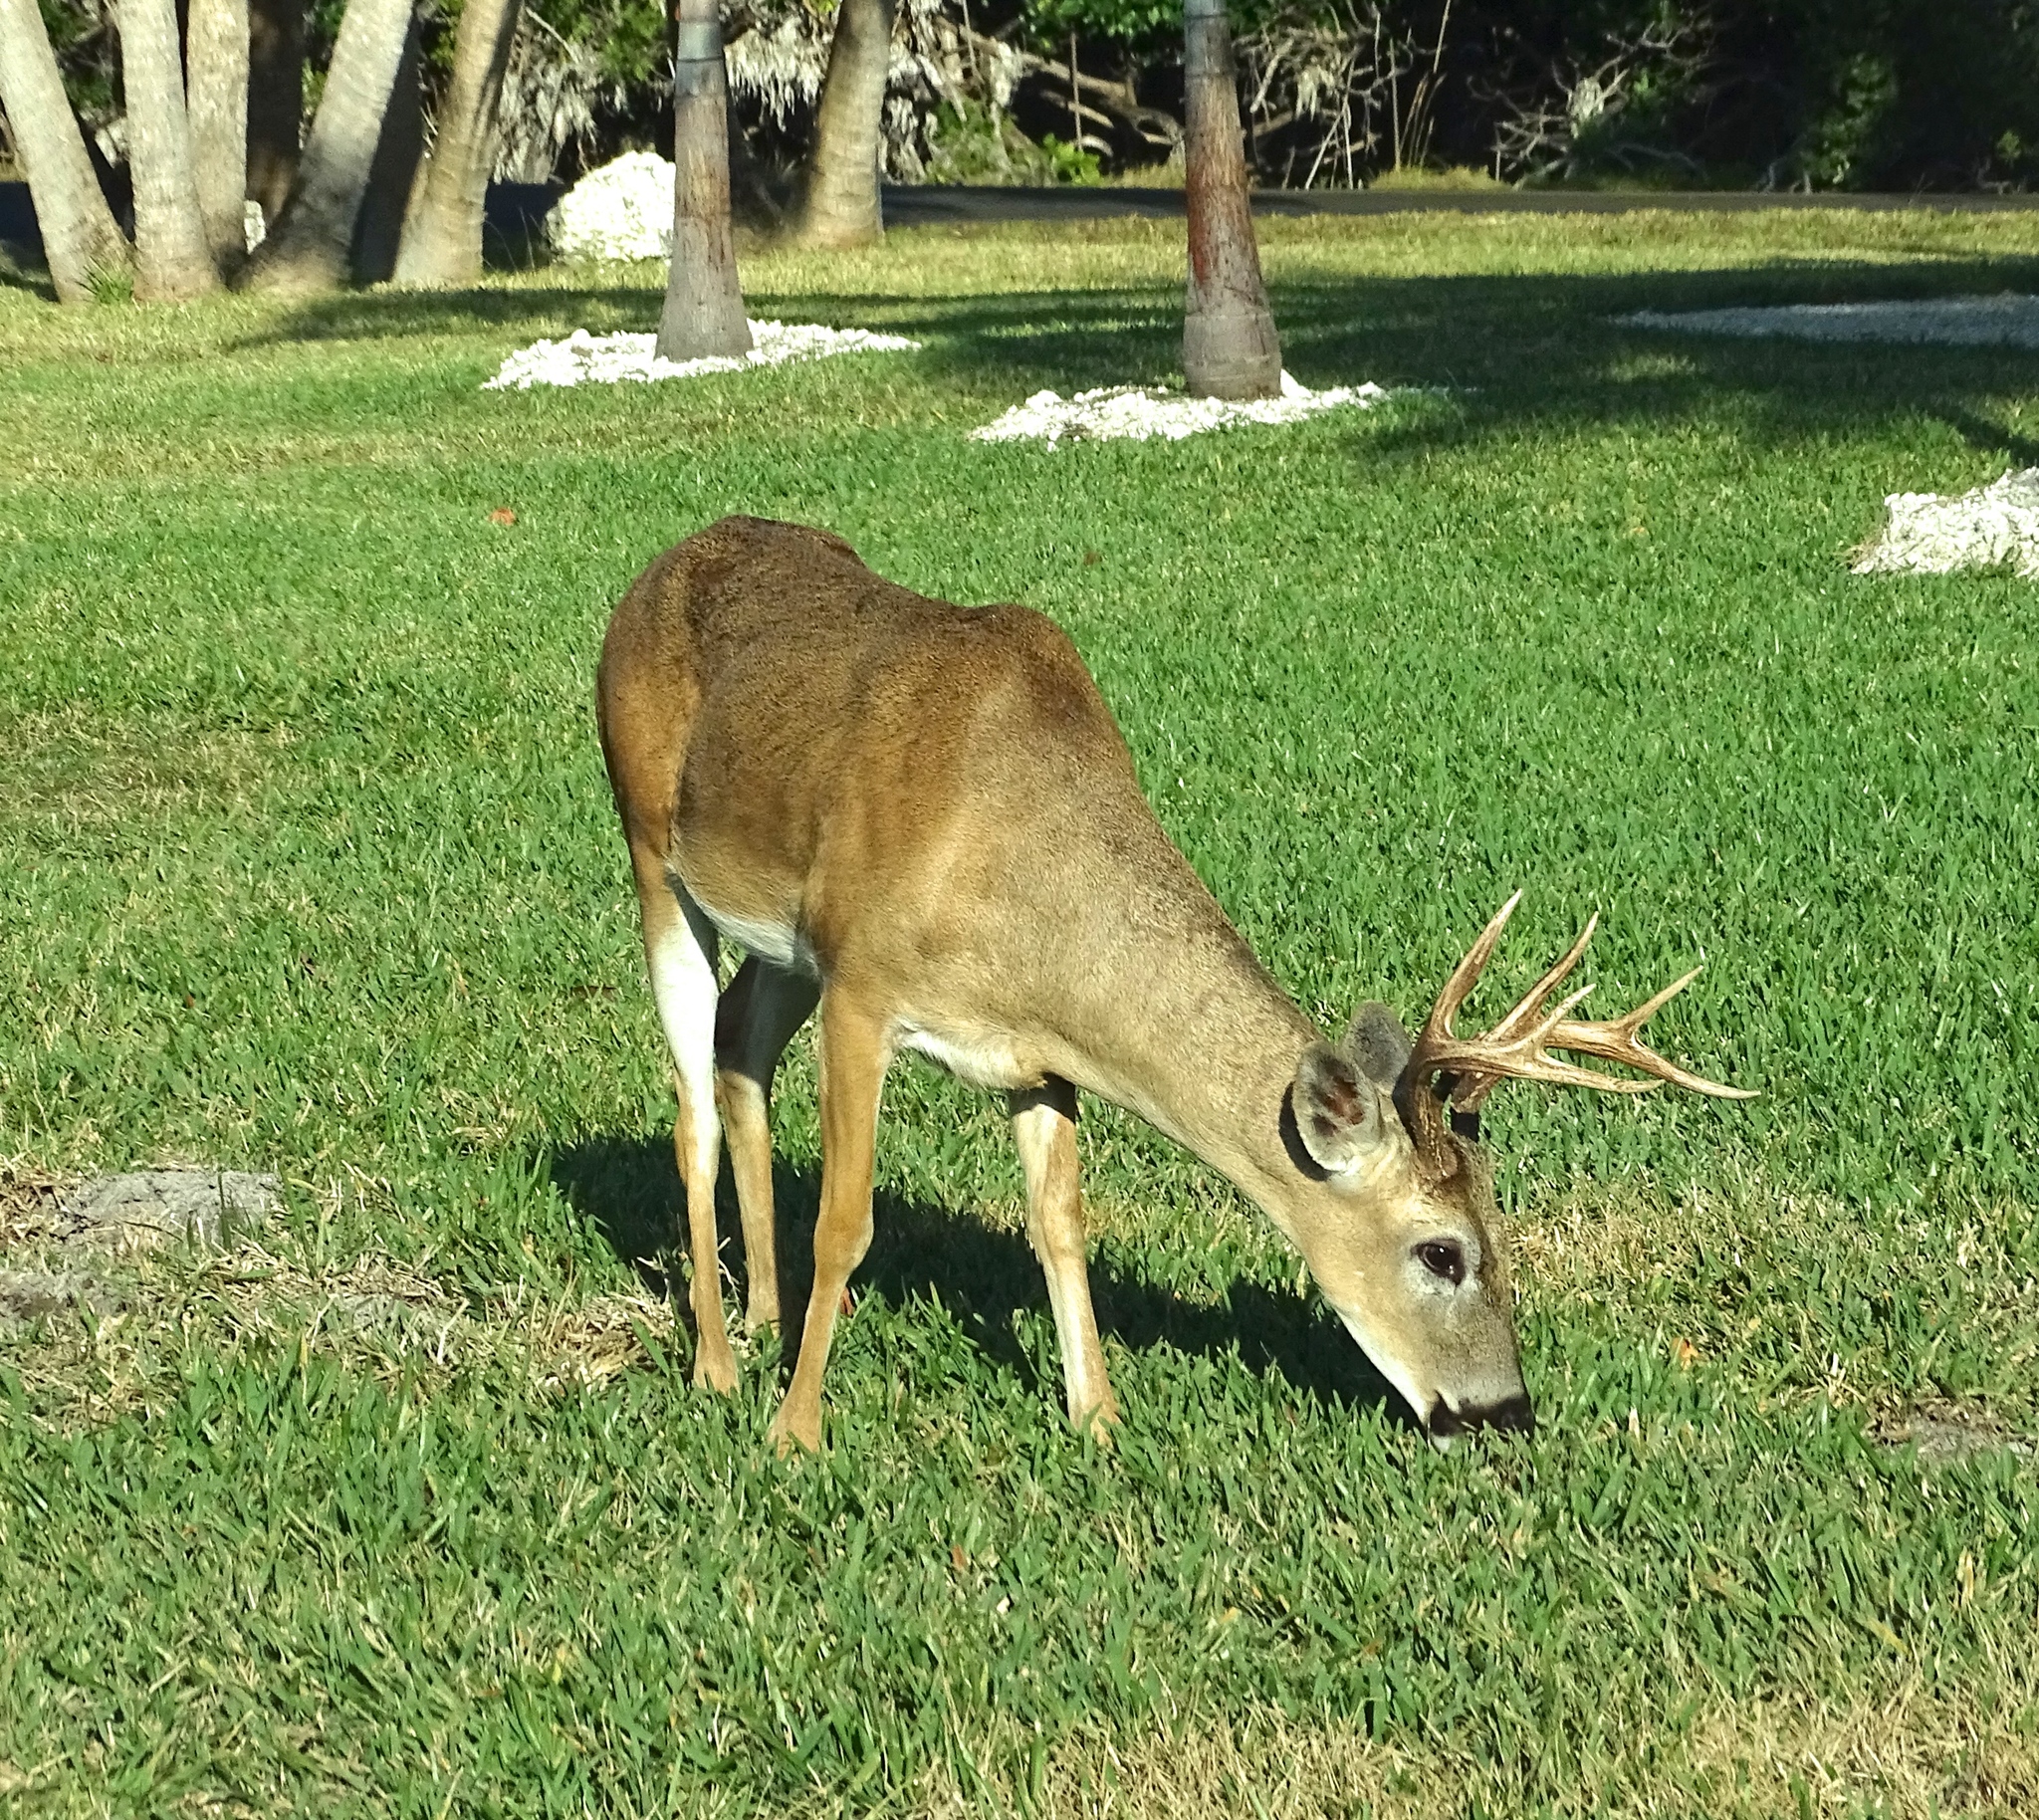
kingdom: Animalia
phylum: Chordata
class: Mammalia
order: Artiodactyla
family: Cervidae
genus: Odocoileus
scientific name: Odocoileus virginianus
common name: White-tailed deer
